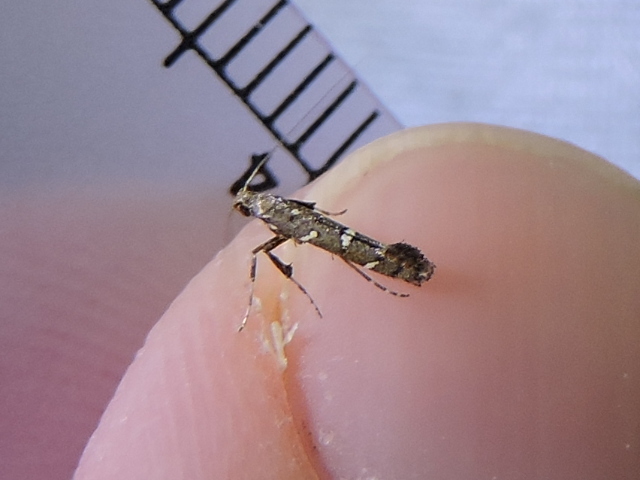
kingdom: Animalia
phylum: Arthropoda
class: Insecta
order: Lepidoptera
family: Gracillariidae
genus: Caloptilia
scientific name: Caloptilia triadicae
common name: Tallow leaf roller
